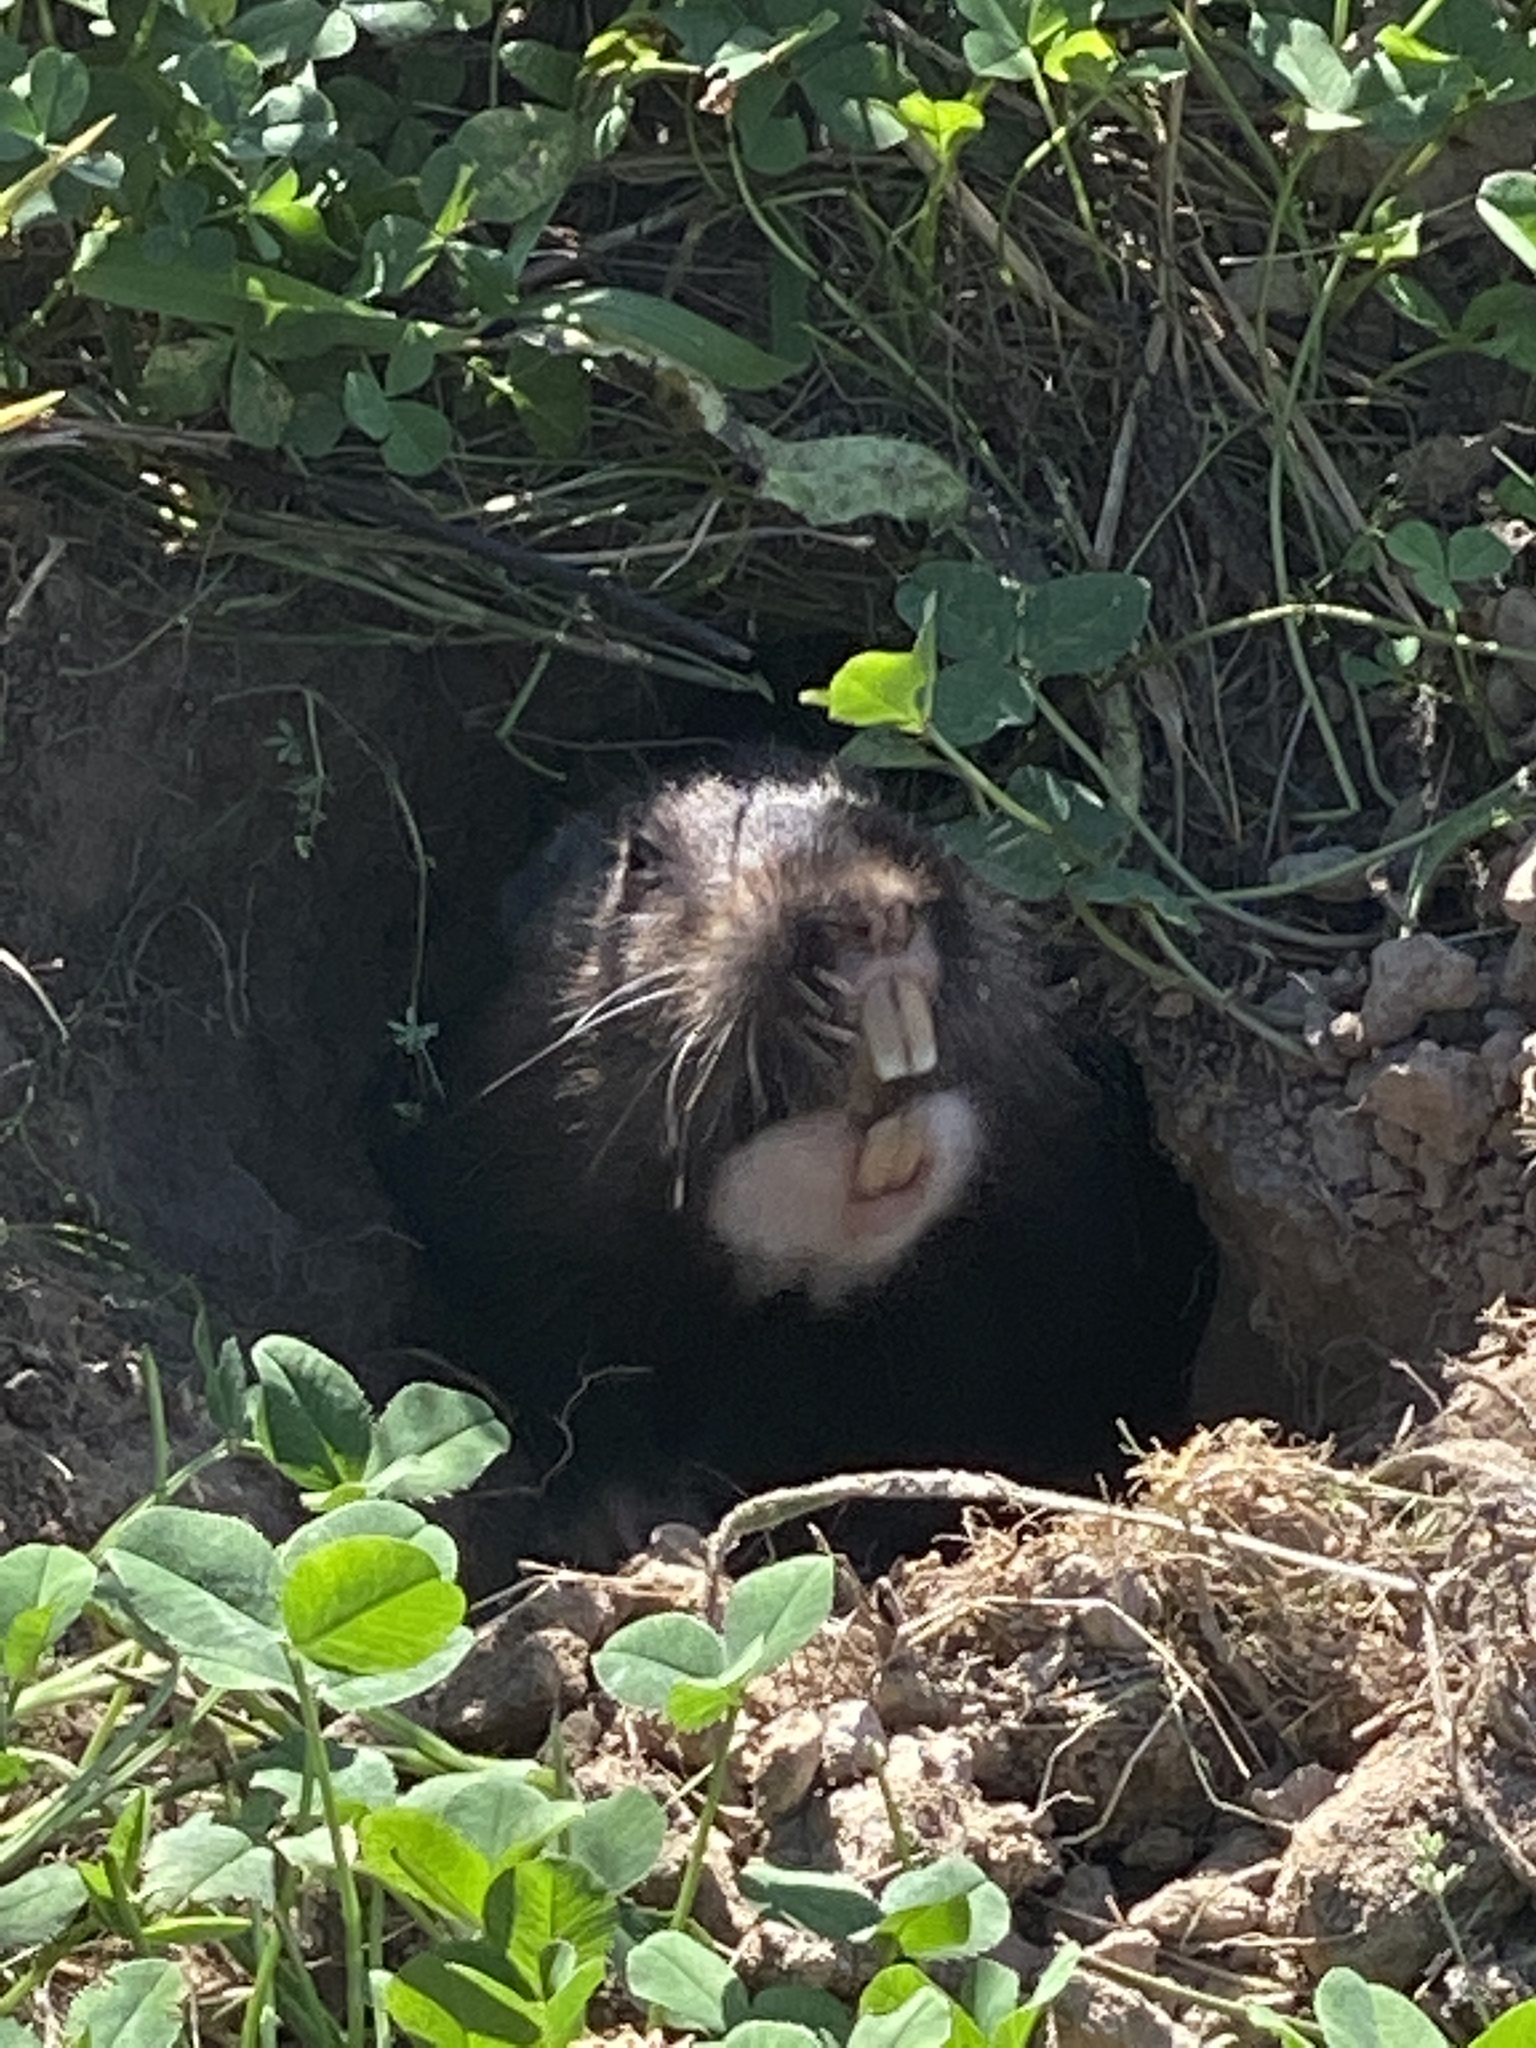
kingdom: Animalia
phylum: Chordata
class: Mammalia
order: Rodentia
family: Geomyidae
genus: Thomomys
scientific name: Thomomys bulbivorus
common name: Camas pocket gopher
